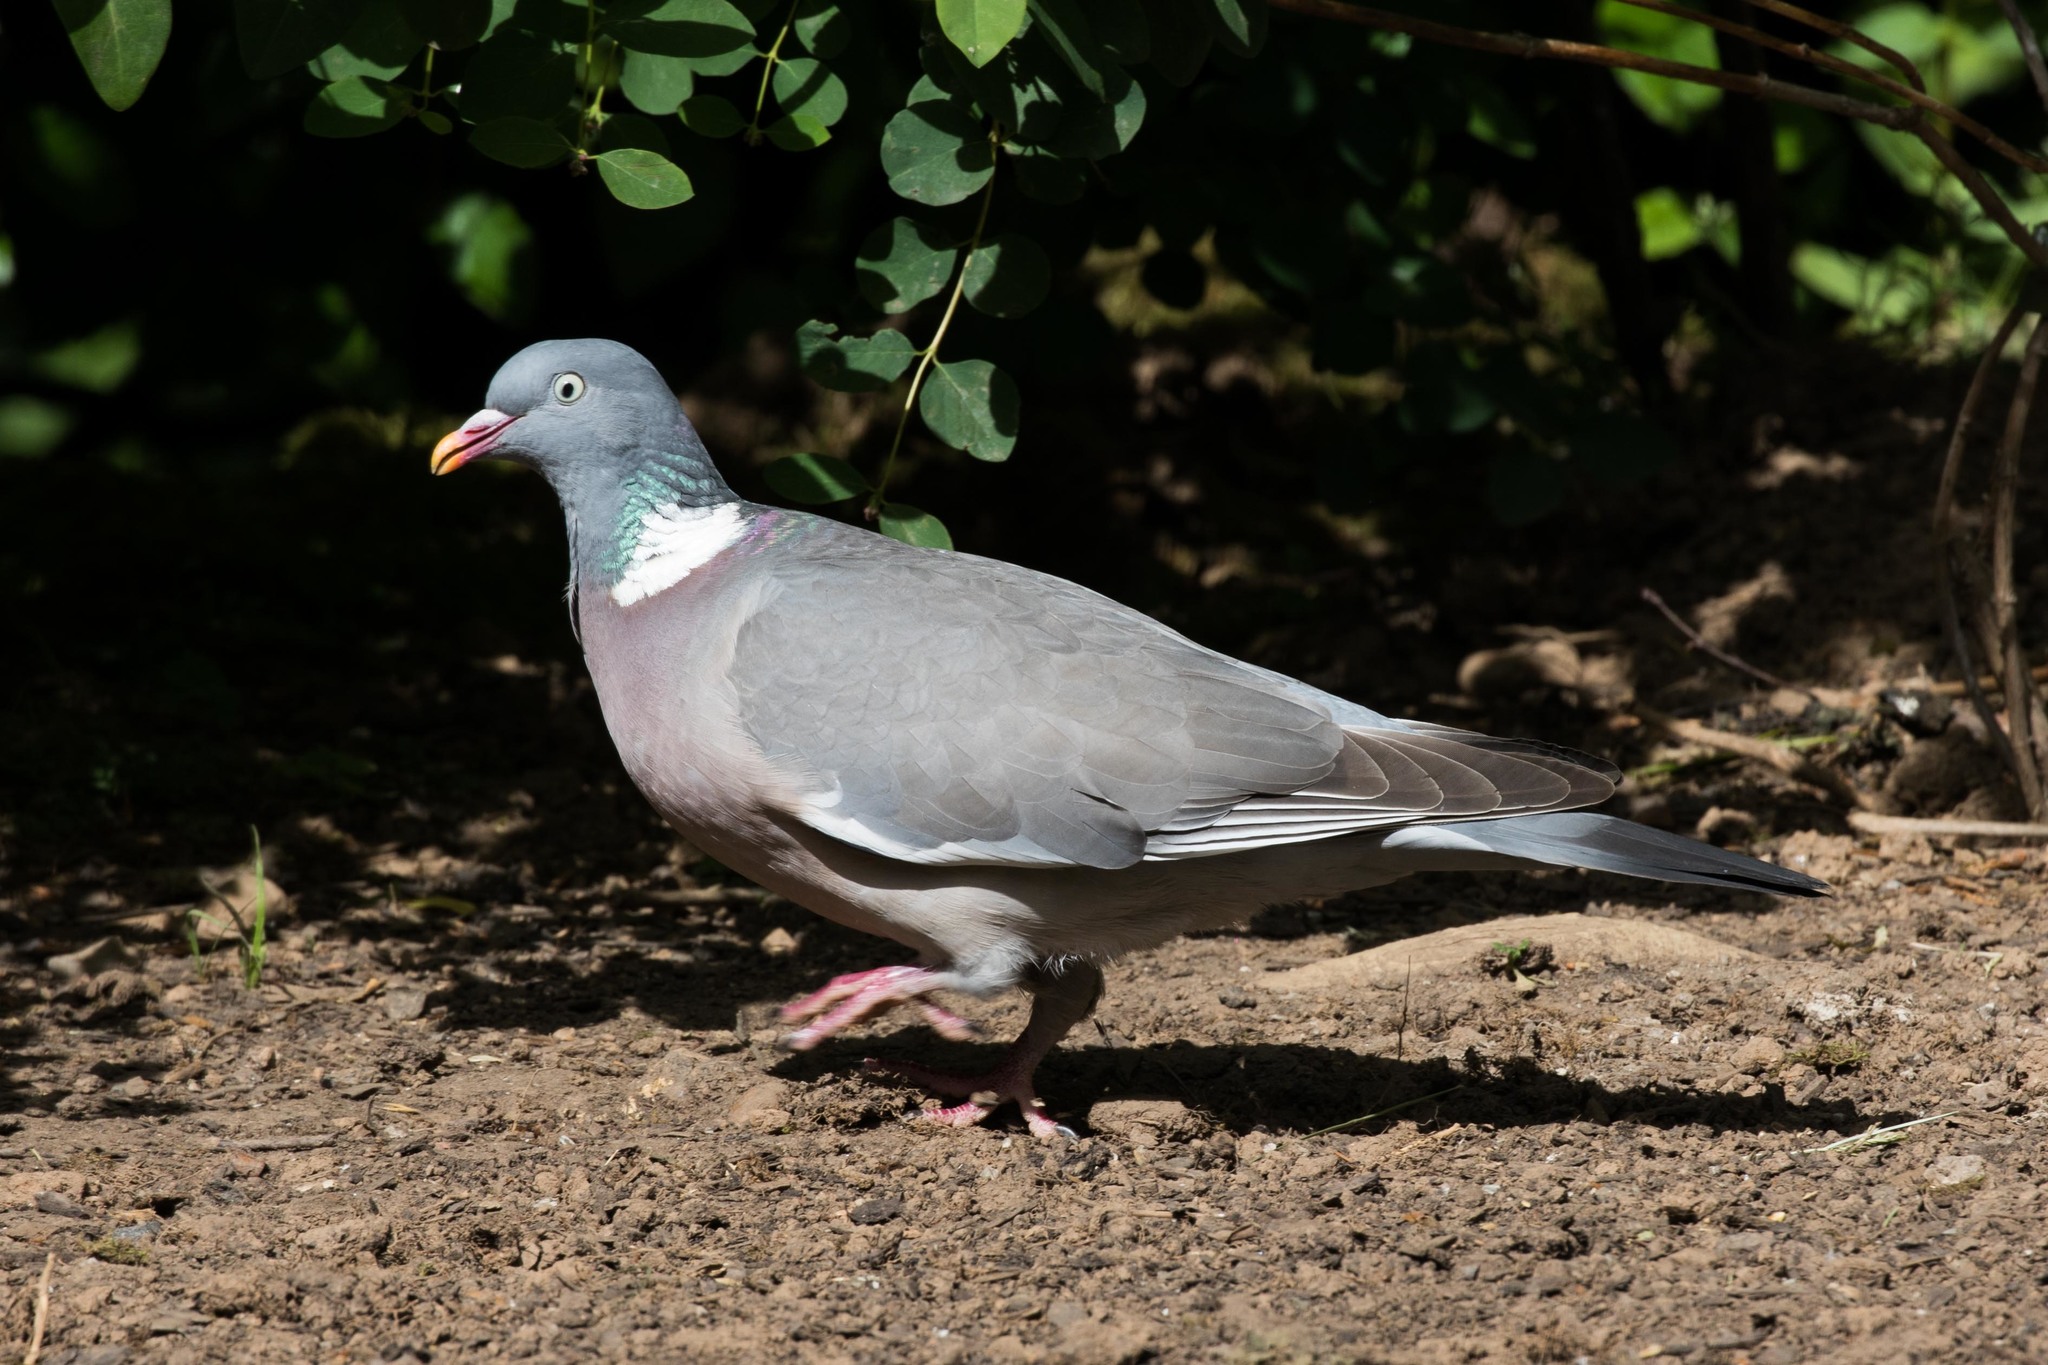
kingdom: Animalia
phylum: Chordata
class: Aves
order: Columbiformes
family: Columbidae
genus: Columba
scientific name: Columba palumbus
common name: Common wood pigeon
